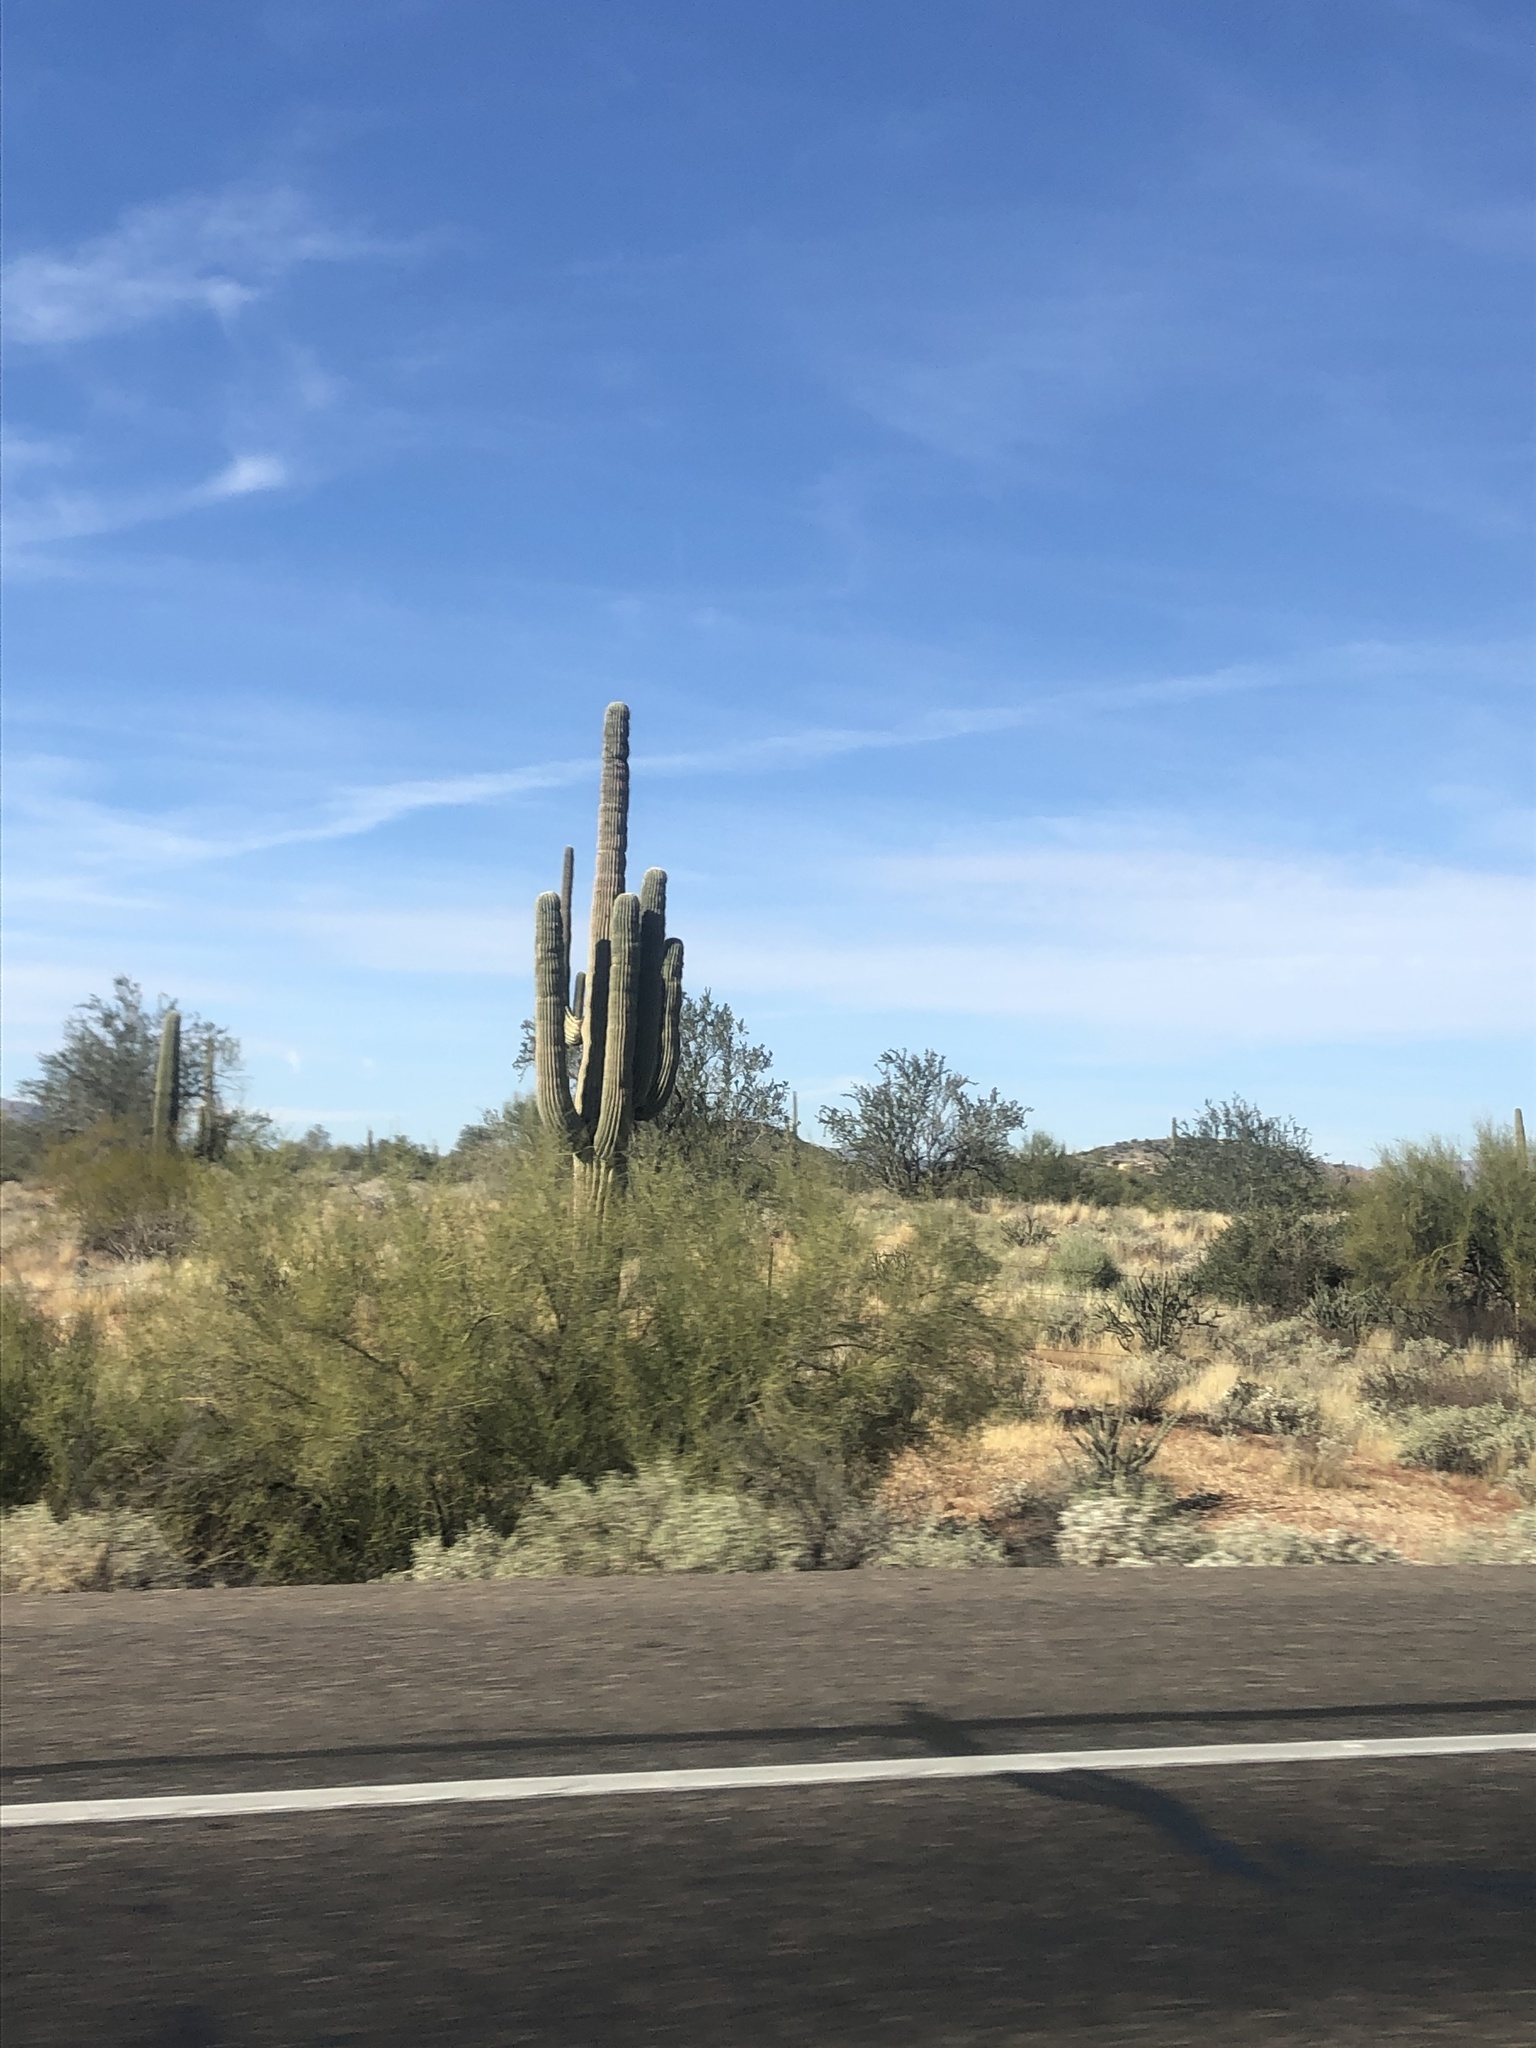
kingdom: Plantae
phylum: Tracheophyta
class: Magnoliopsida
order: Caryophyllales
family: Cactaceae
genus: Carnegiea
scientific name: Carnegiea gigantea
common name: Saguaro
